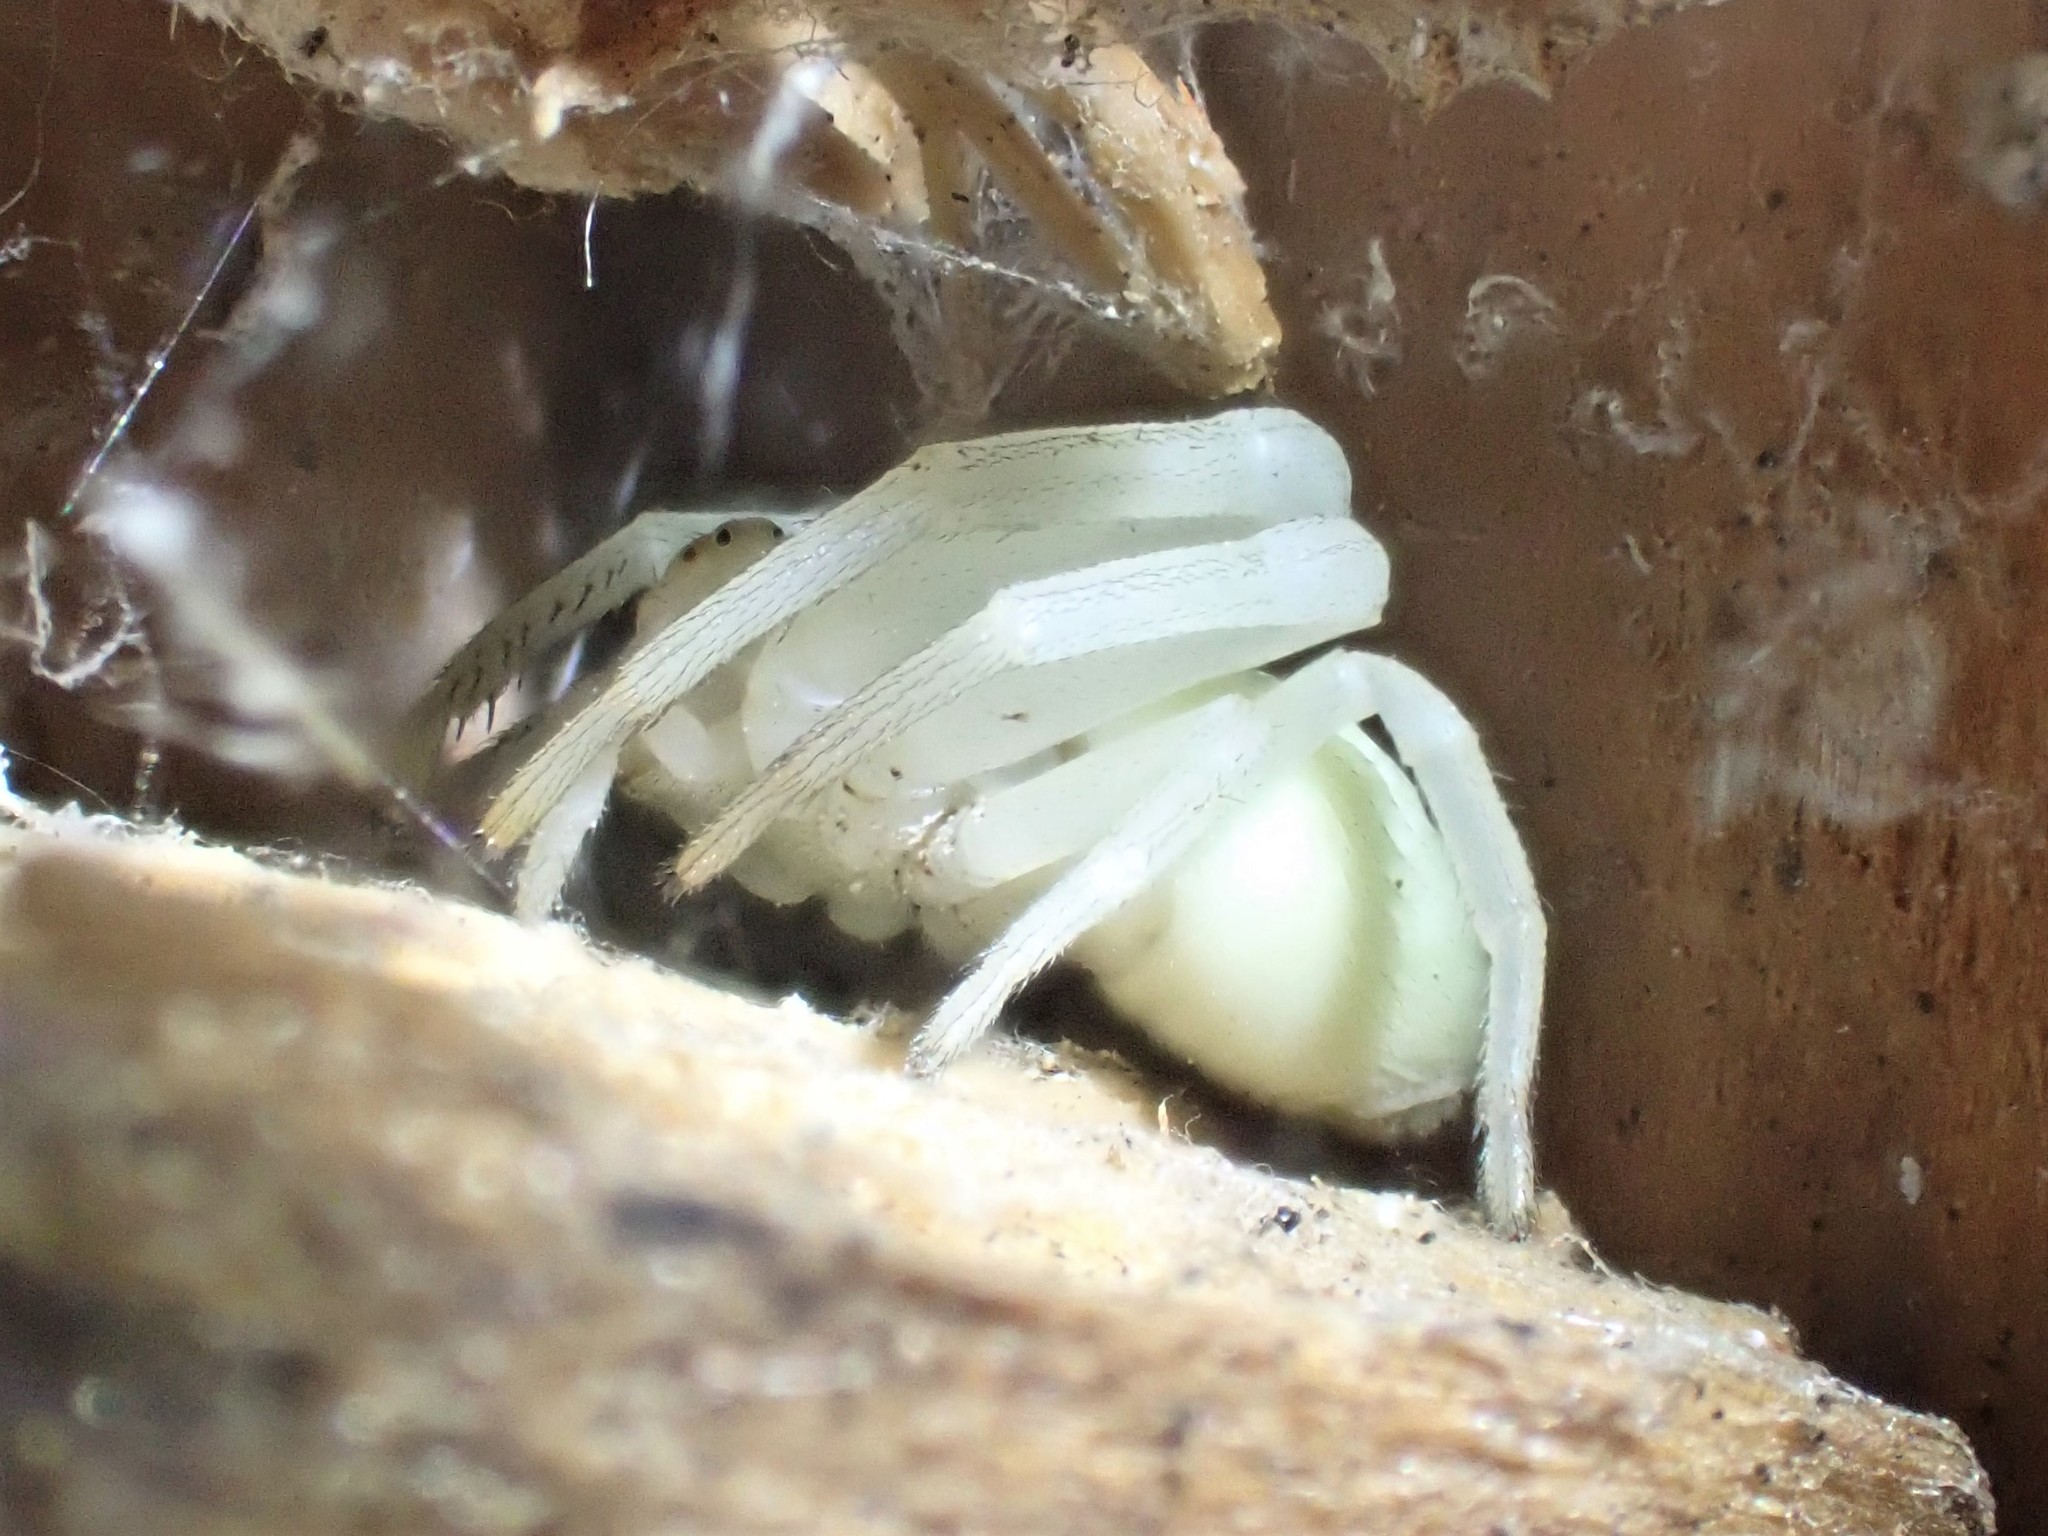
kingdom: Animalia
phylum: Arthropoda
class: Arachnida
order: Araneae
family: Thomisidae
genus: Misumena
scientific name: Misumena vatia
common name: Goldenrod crab spider
